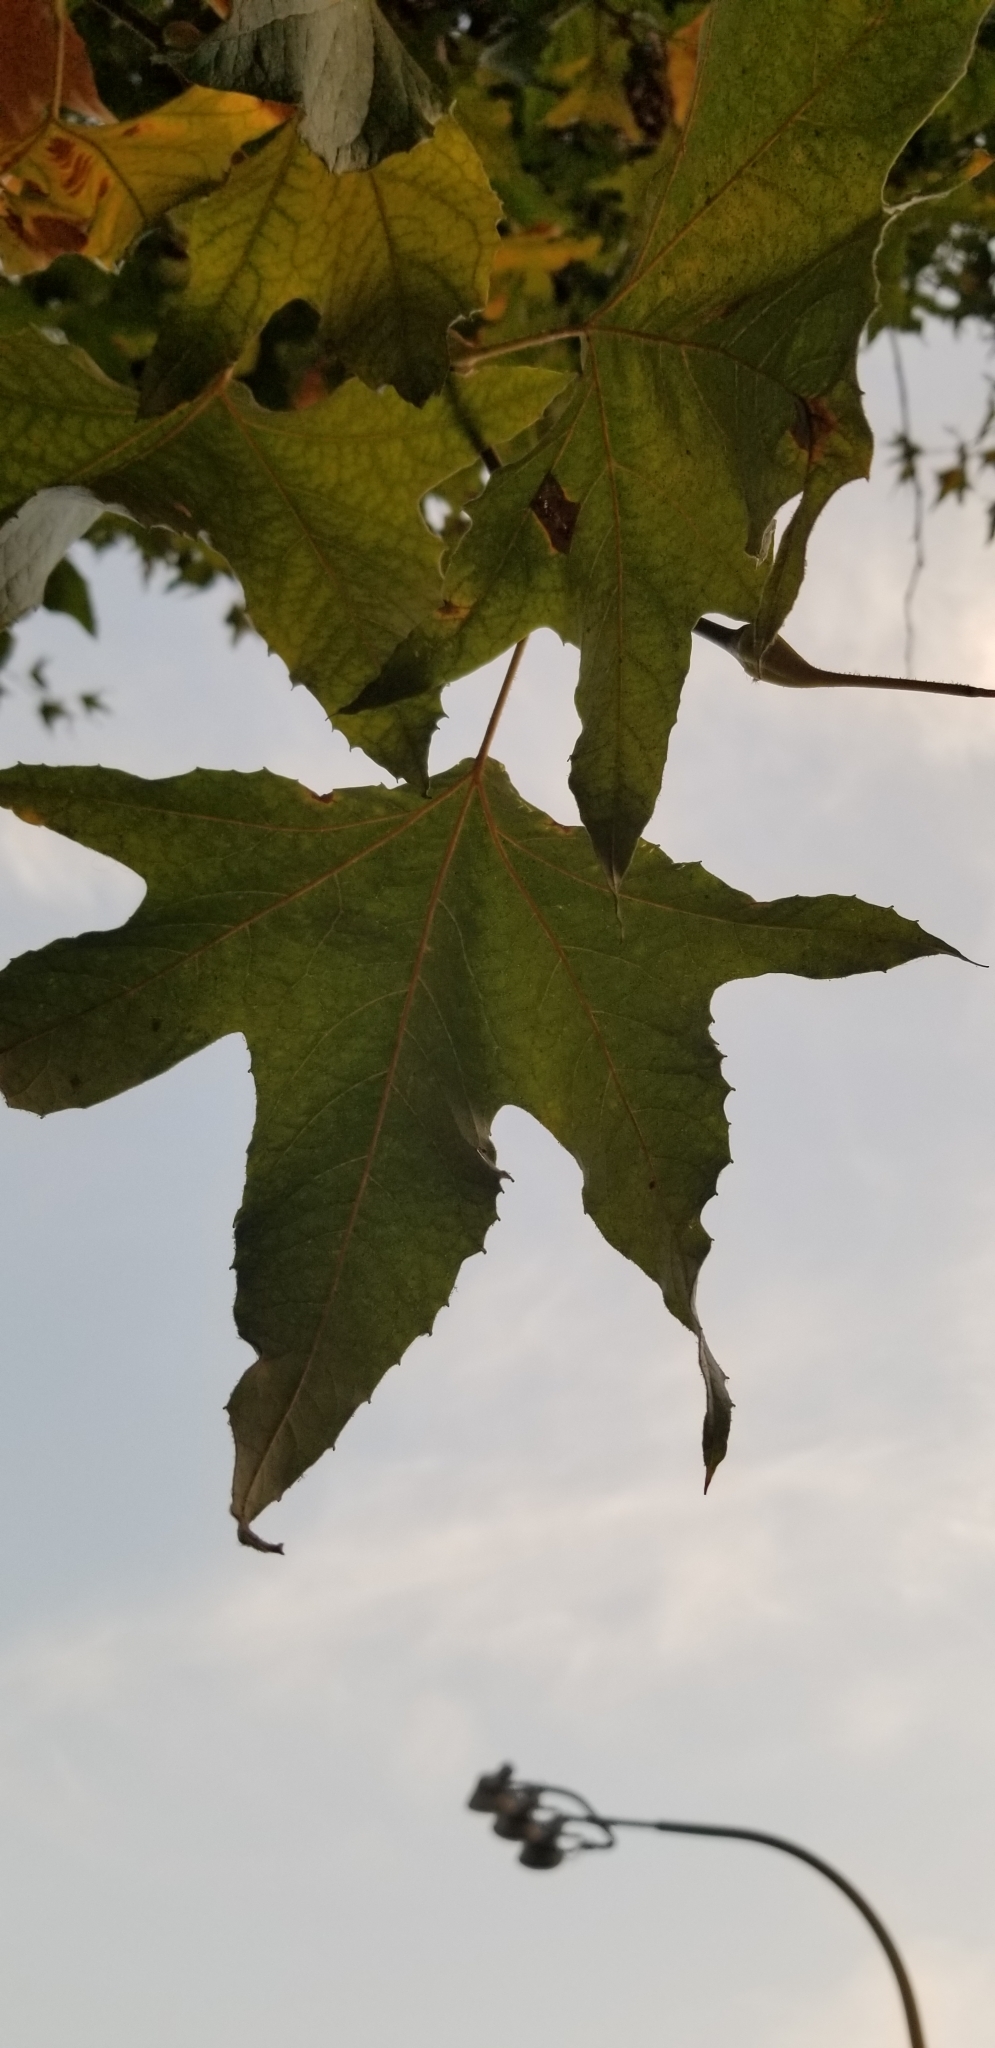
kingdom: Plantae
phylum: Tracheophyta
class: Magnoliopsida
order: Proteales
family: Platanaceae
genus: Platanus
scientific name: Platanus racemosa
